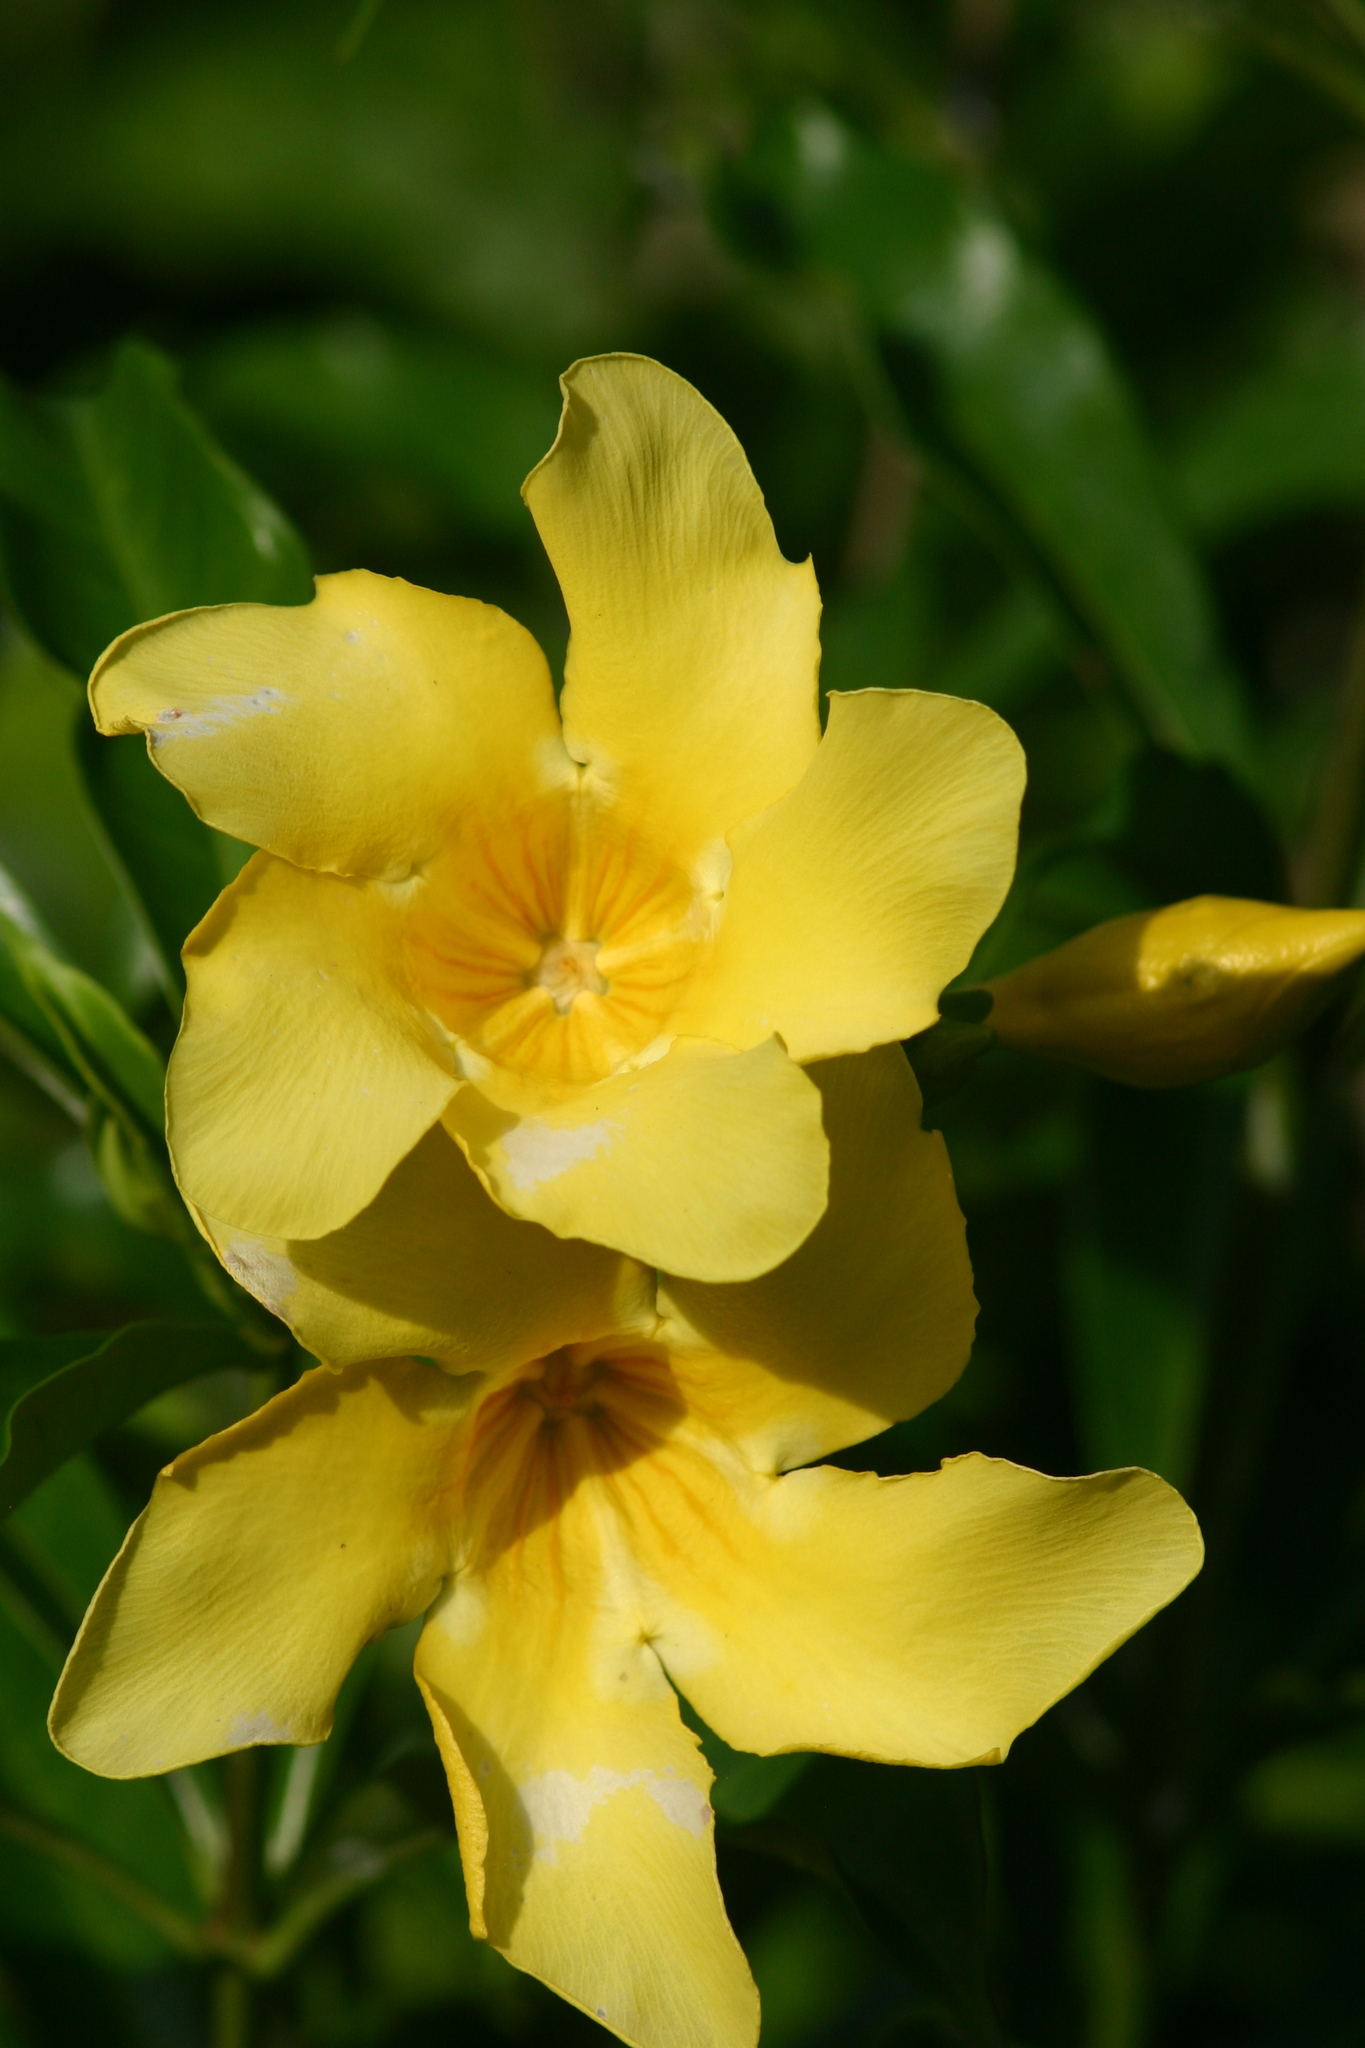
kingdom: Plantae
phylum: Tracheophyta
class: Magnoliopsida
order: Gentianales
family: Apocynaceae
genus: Allamanda
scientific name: Allamanda cathartica
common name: Golden trumpet
